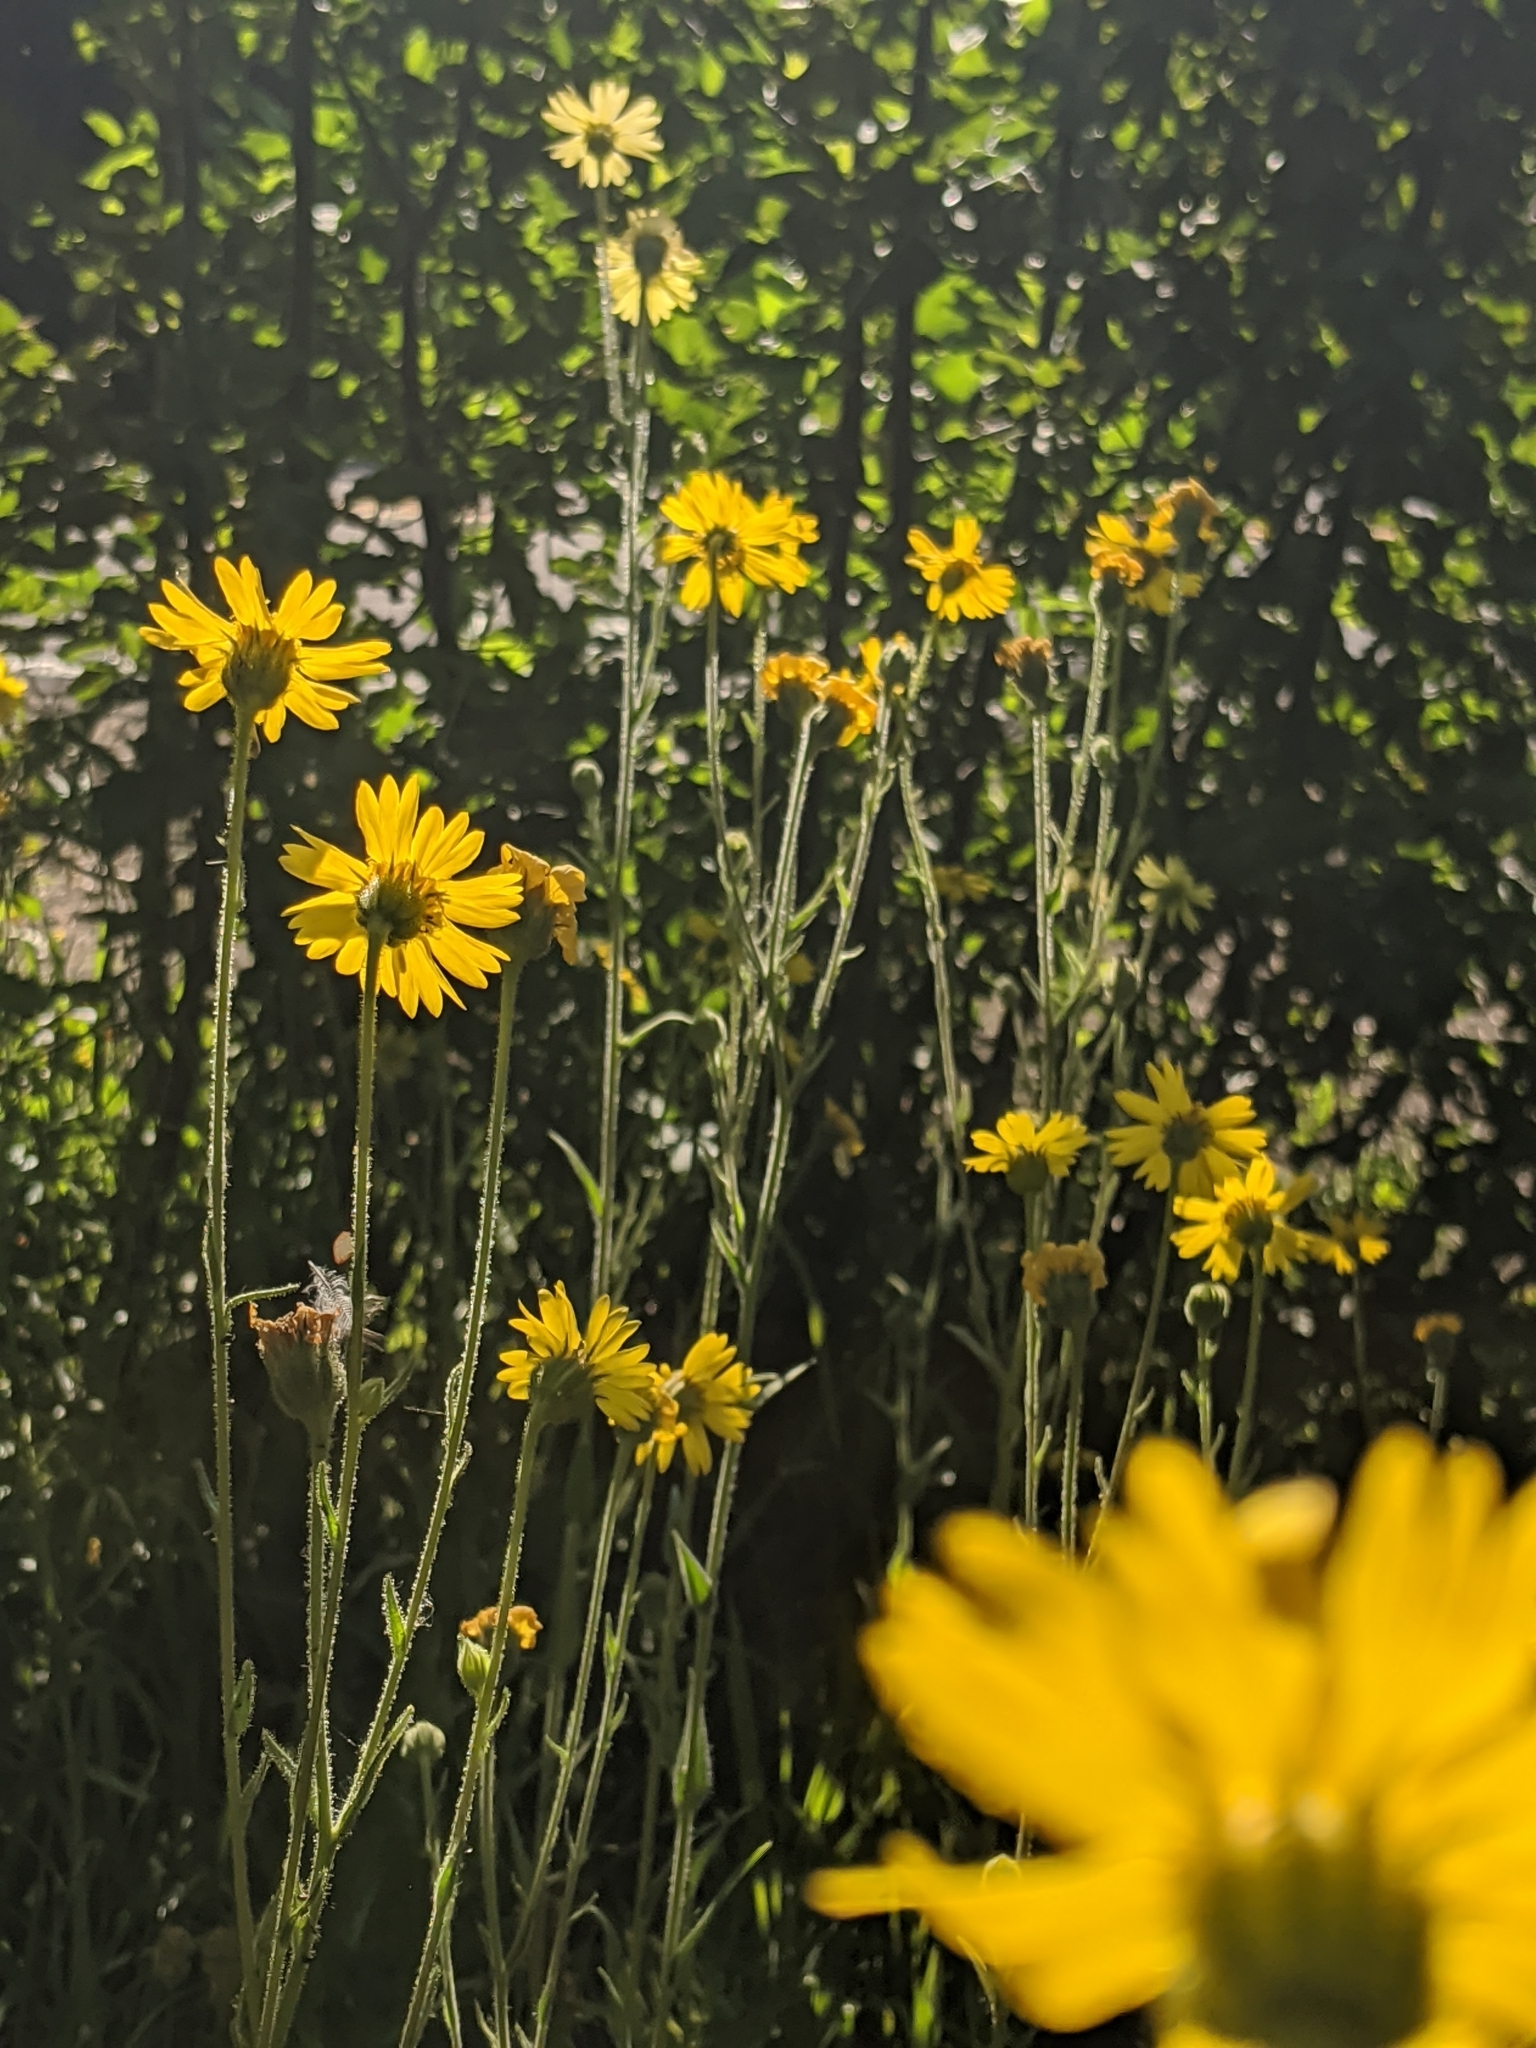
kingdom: Plantae
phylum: Tracheophyta
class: Magnoliopsida
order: Asterales
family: Asteraceae
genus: Kyhosia
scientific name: Kyhosia bolanderi
